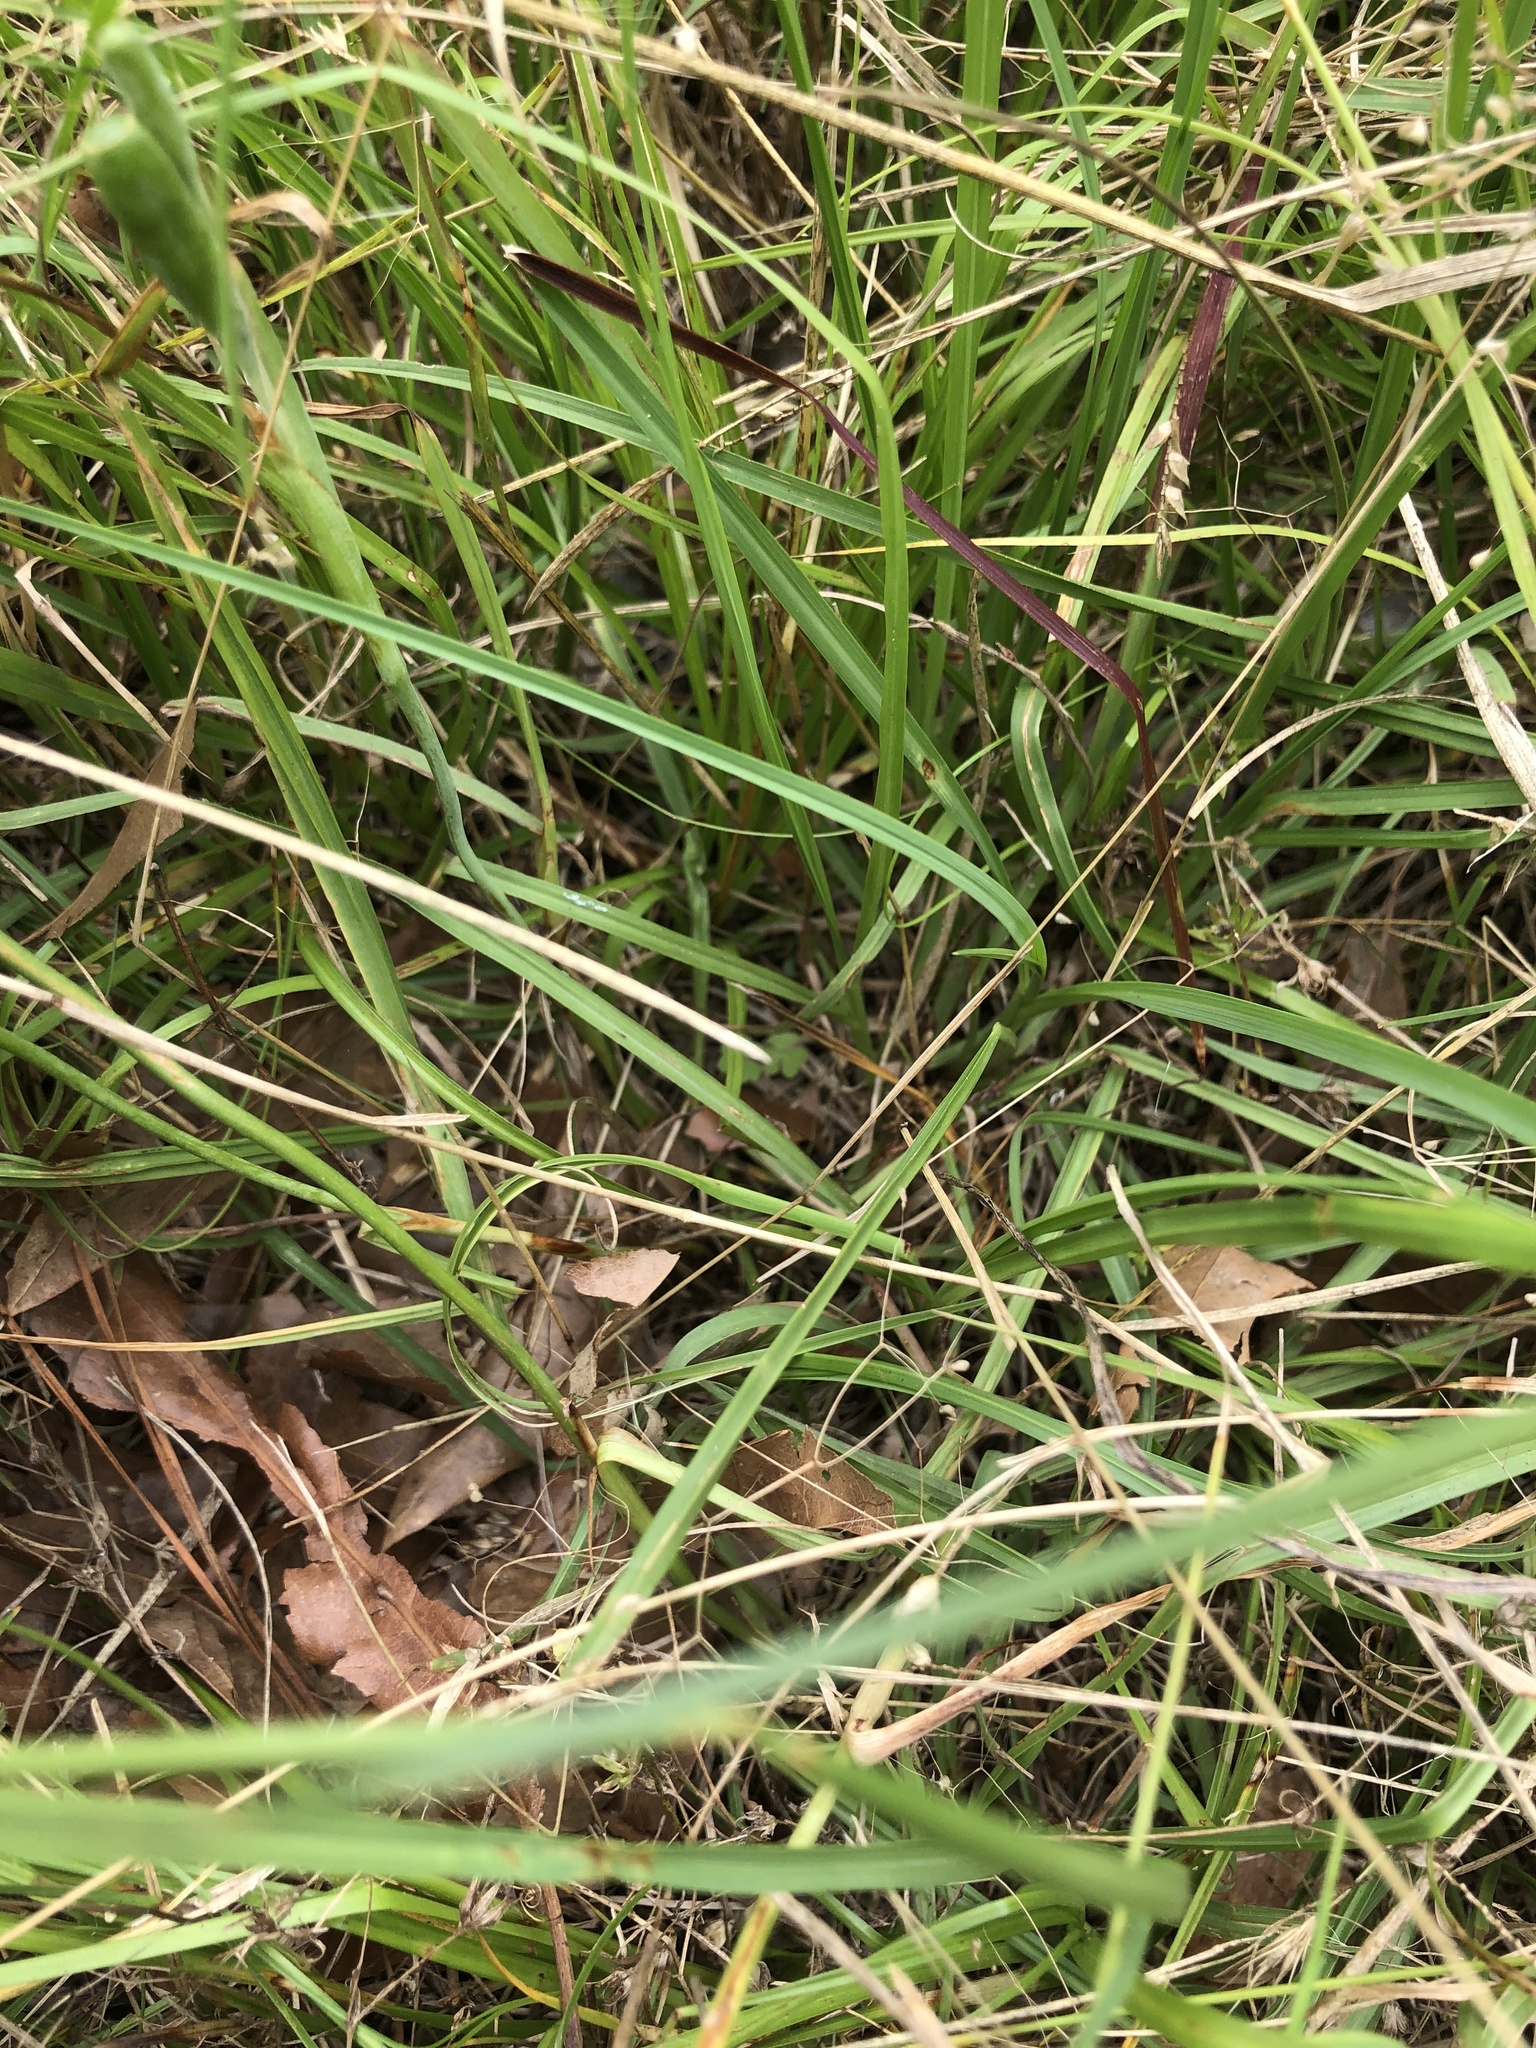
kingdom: Plantae
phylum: Tracheophyta
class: Liliopsida
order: Asparagales
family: Iridaceae
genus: Herbertia
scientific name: Herbertia lahue
